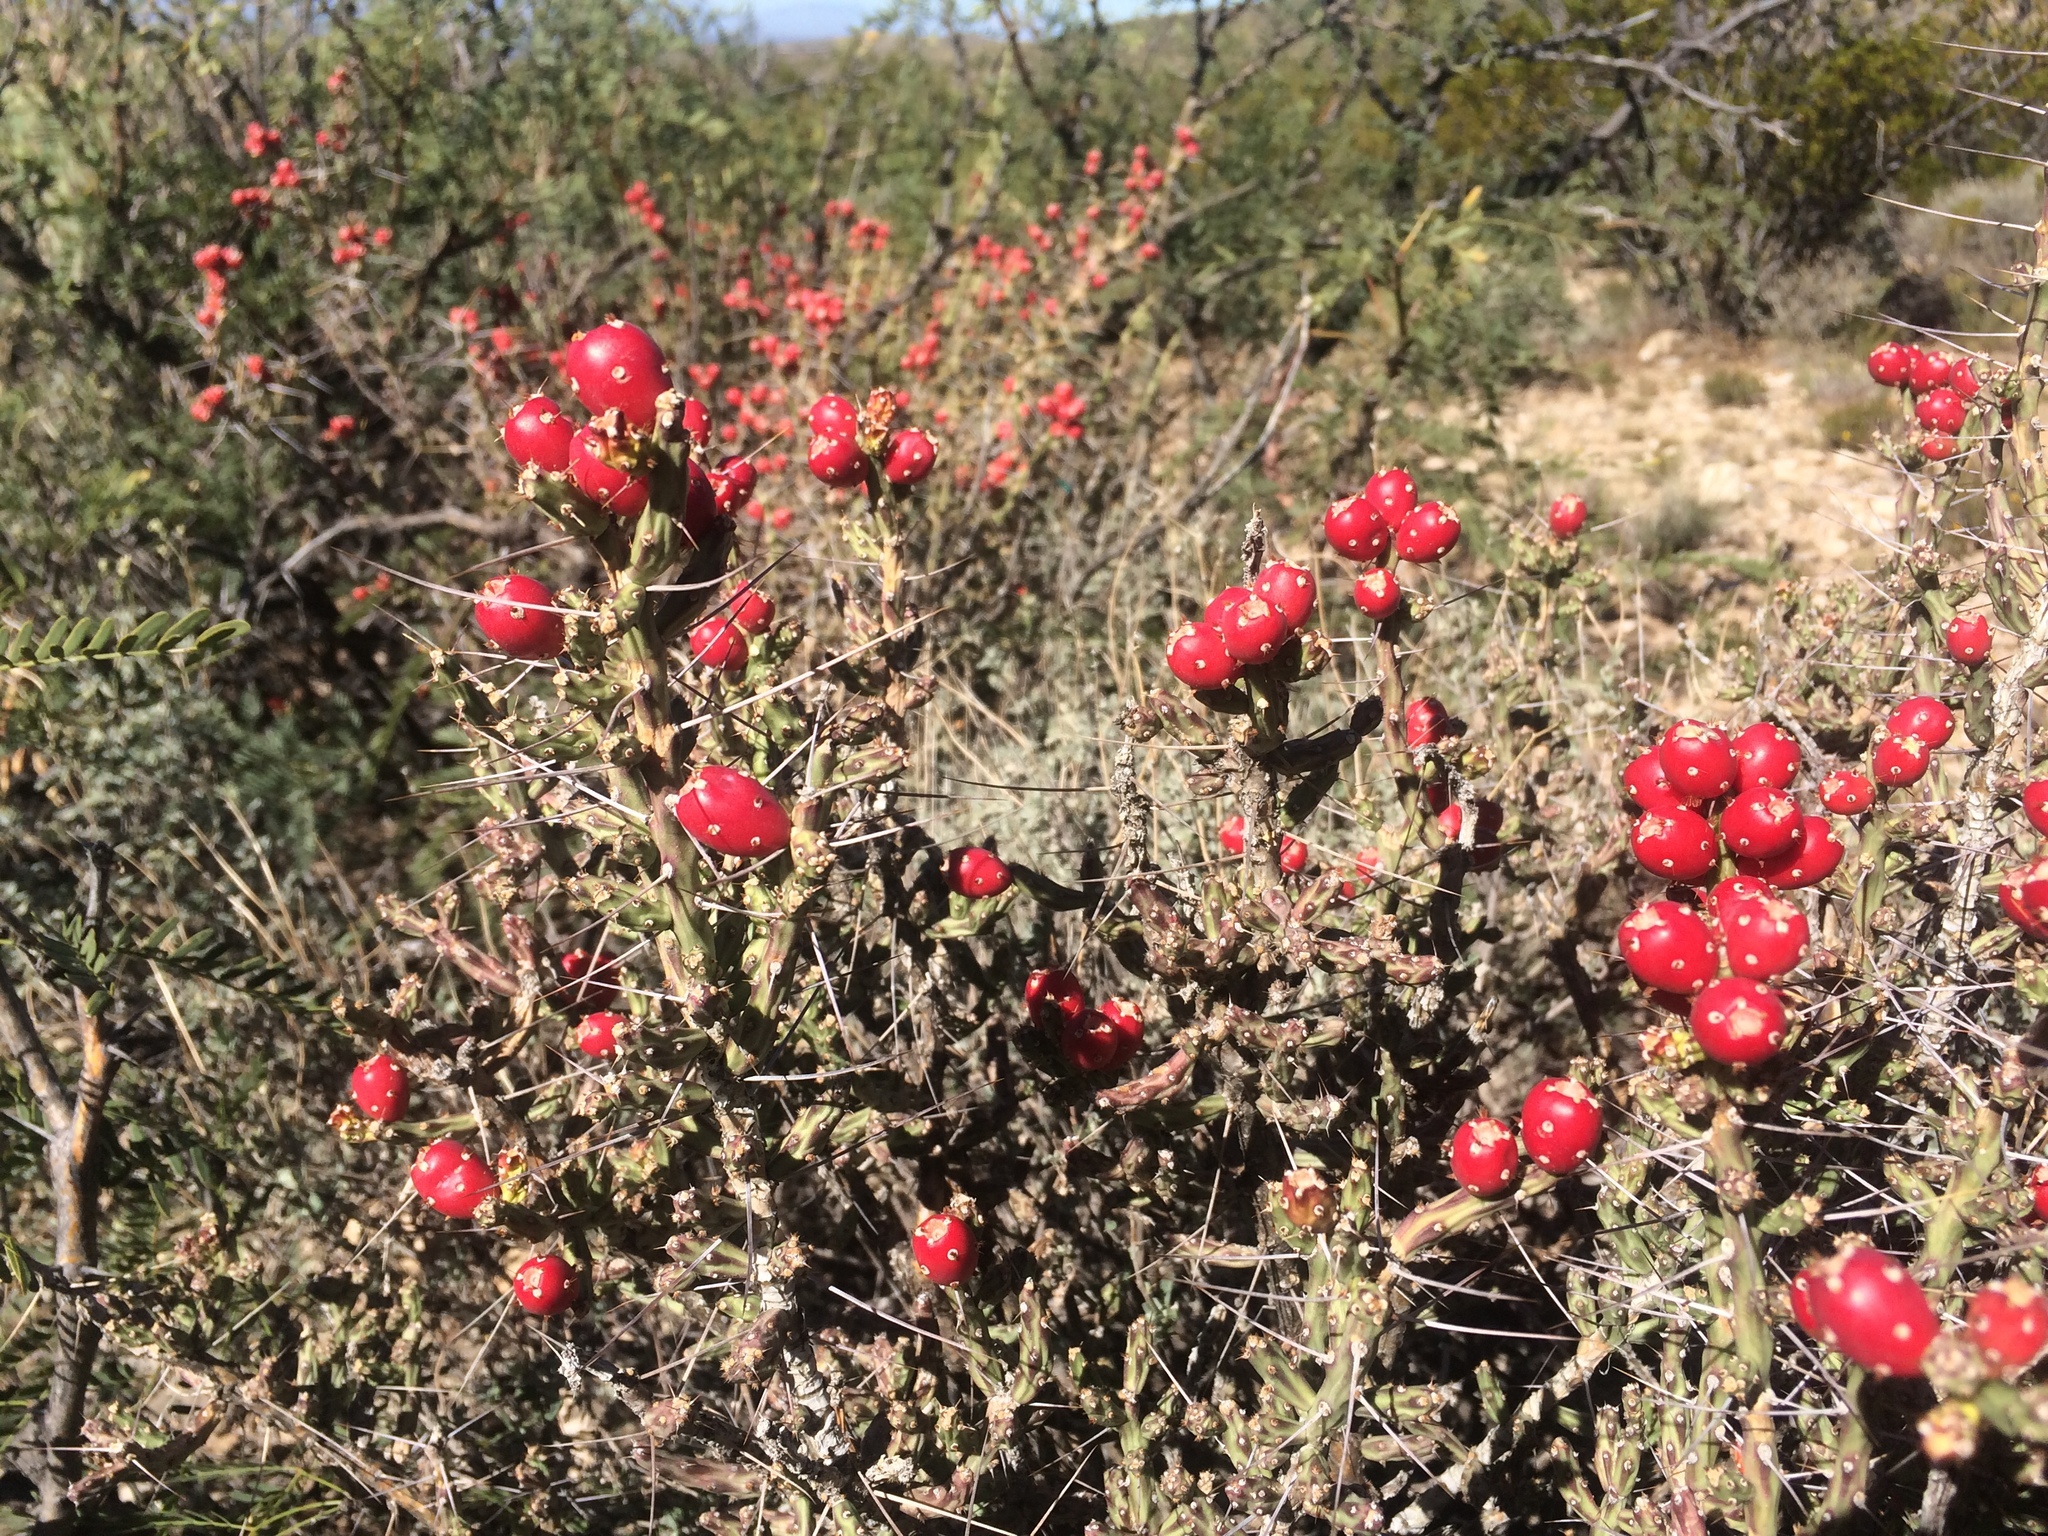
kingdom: Plantae
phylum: Tracheophyta
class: Magnoliopsida
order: Caryophyllales
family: Cactaceae
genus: Cylindropuntia
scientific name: Cylindropuntia leptocaulis
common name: Christmas cactus
